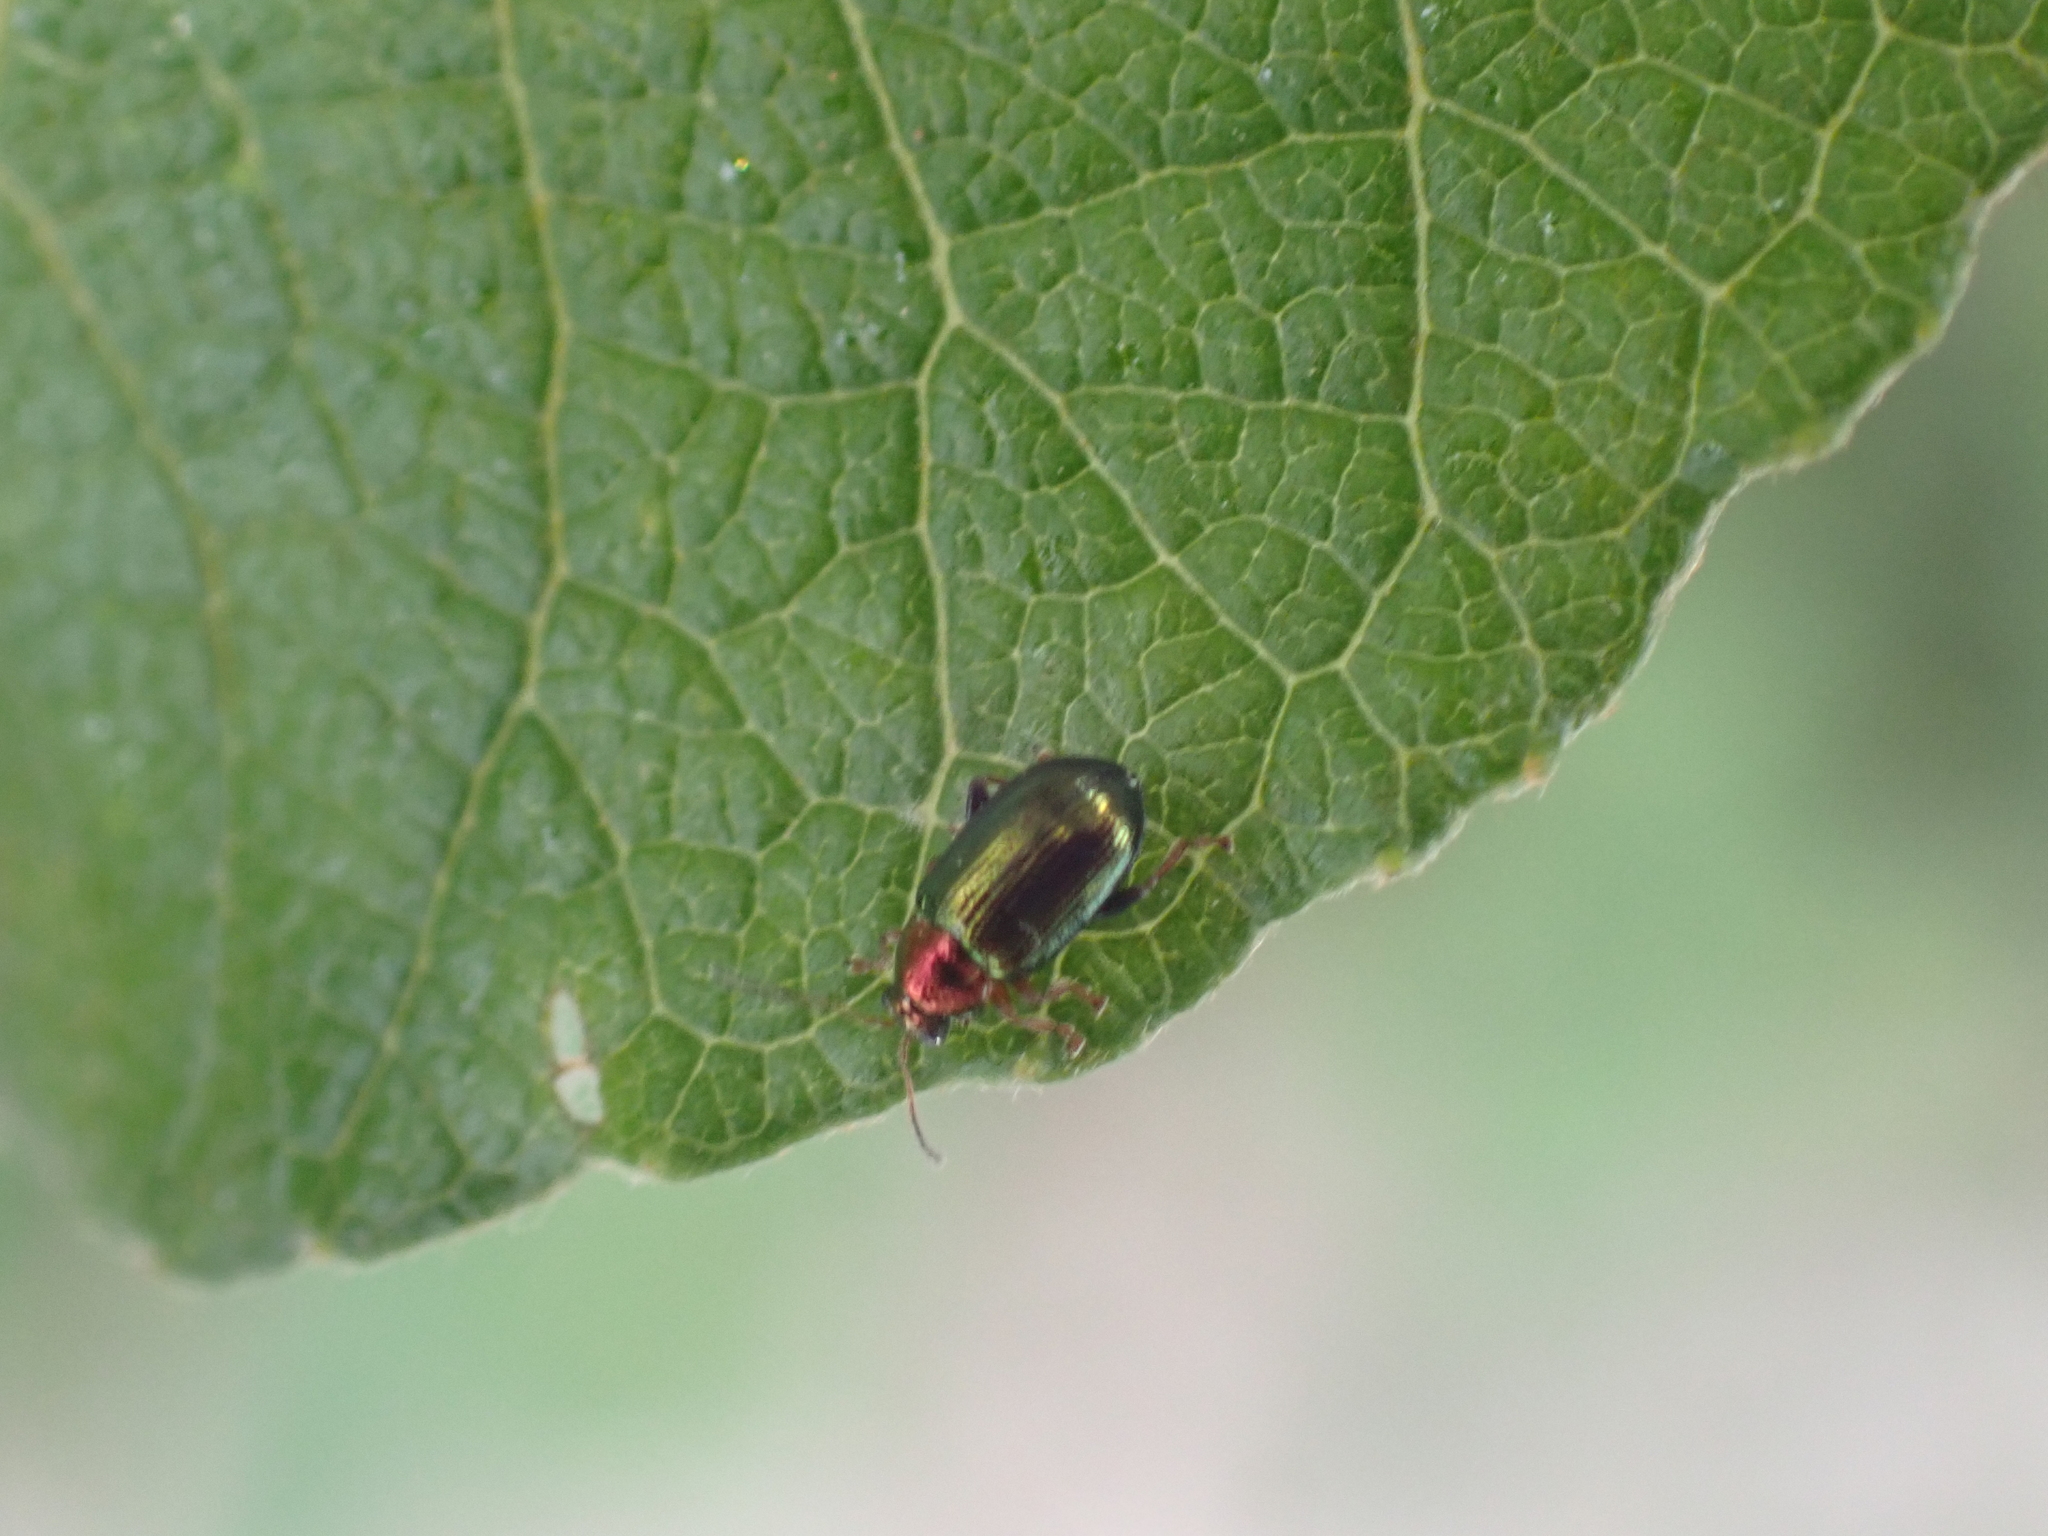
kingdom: Animalia
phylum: Arthropoda
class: Insecta
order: Coleoptera
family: Chrysomelidae
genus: Crepidodera
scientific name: Crepidodera aurata
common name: Willow flea beetle
